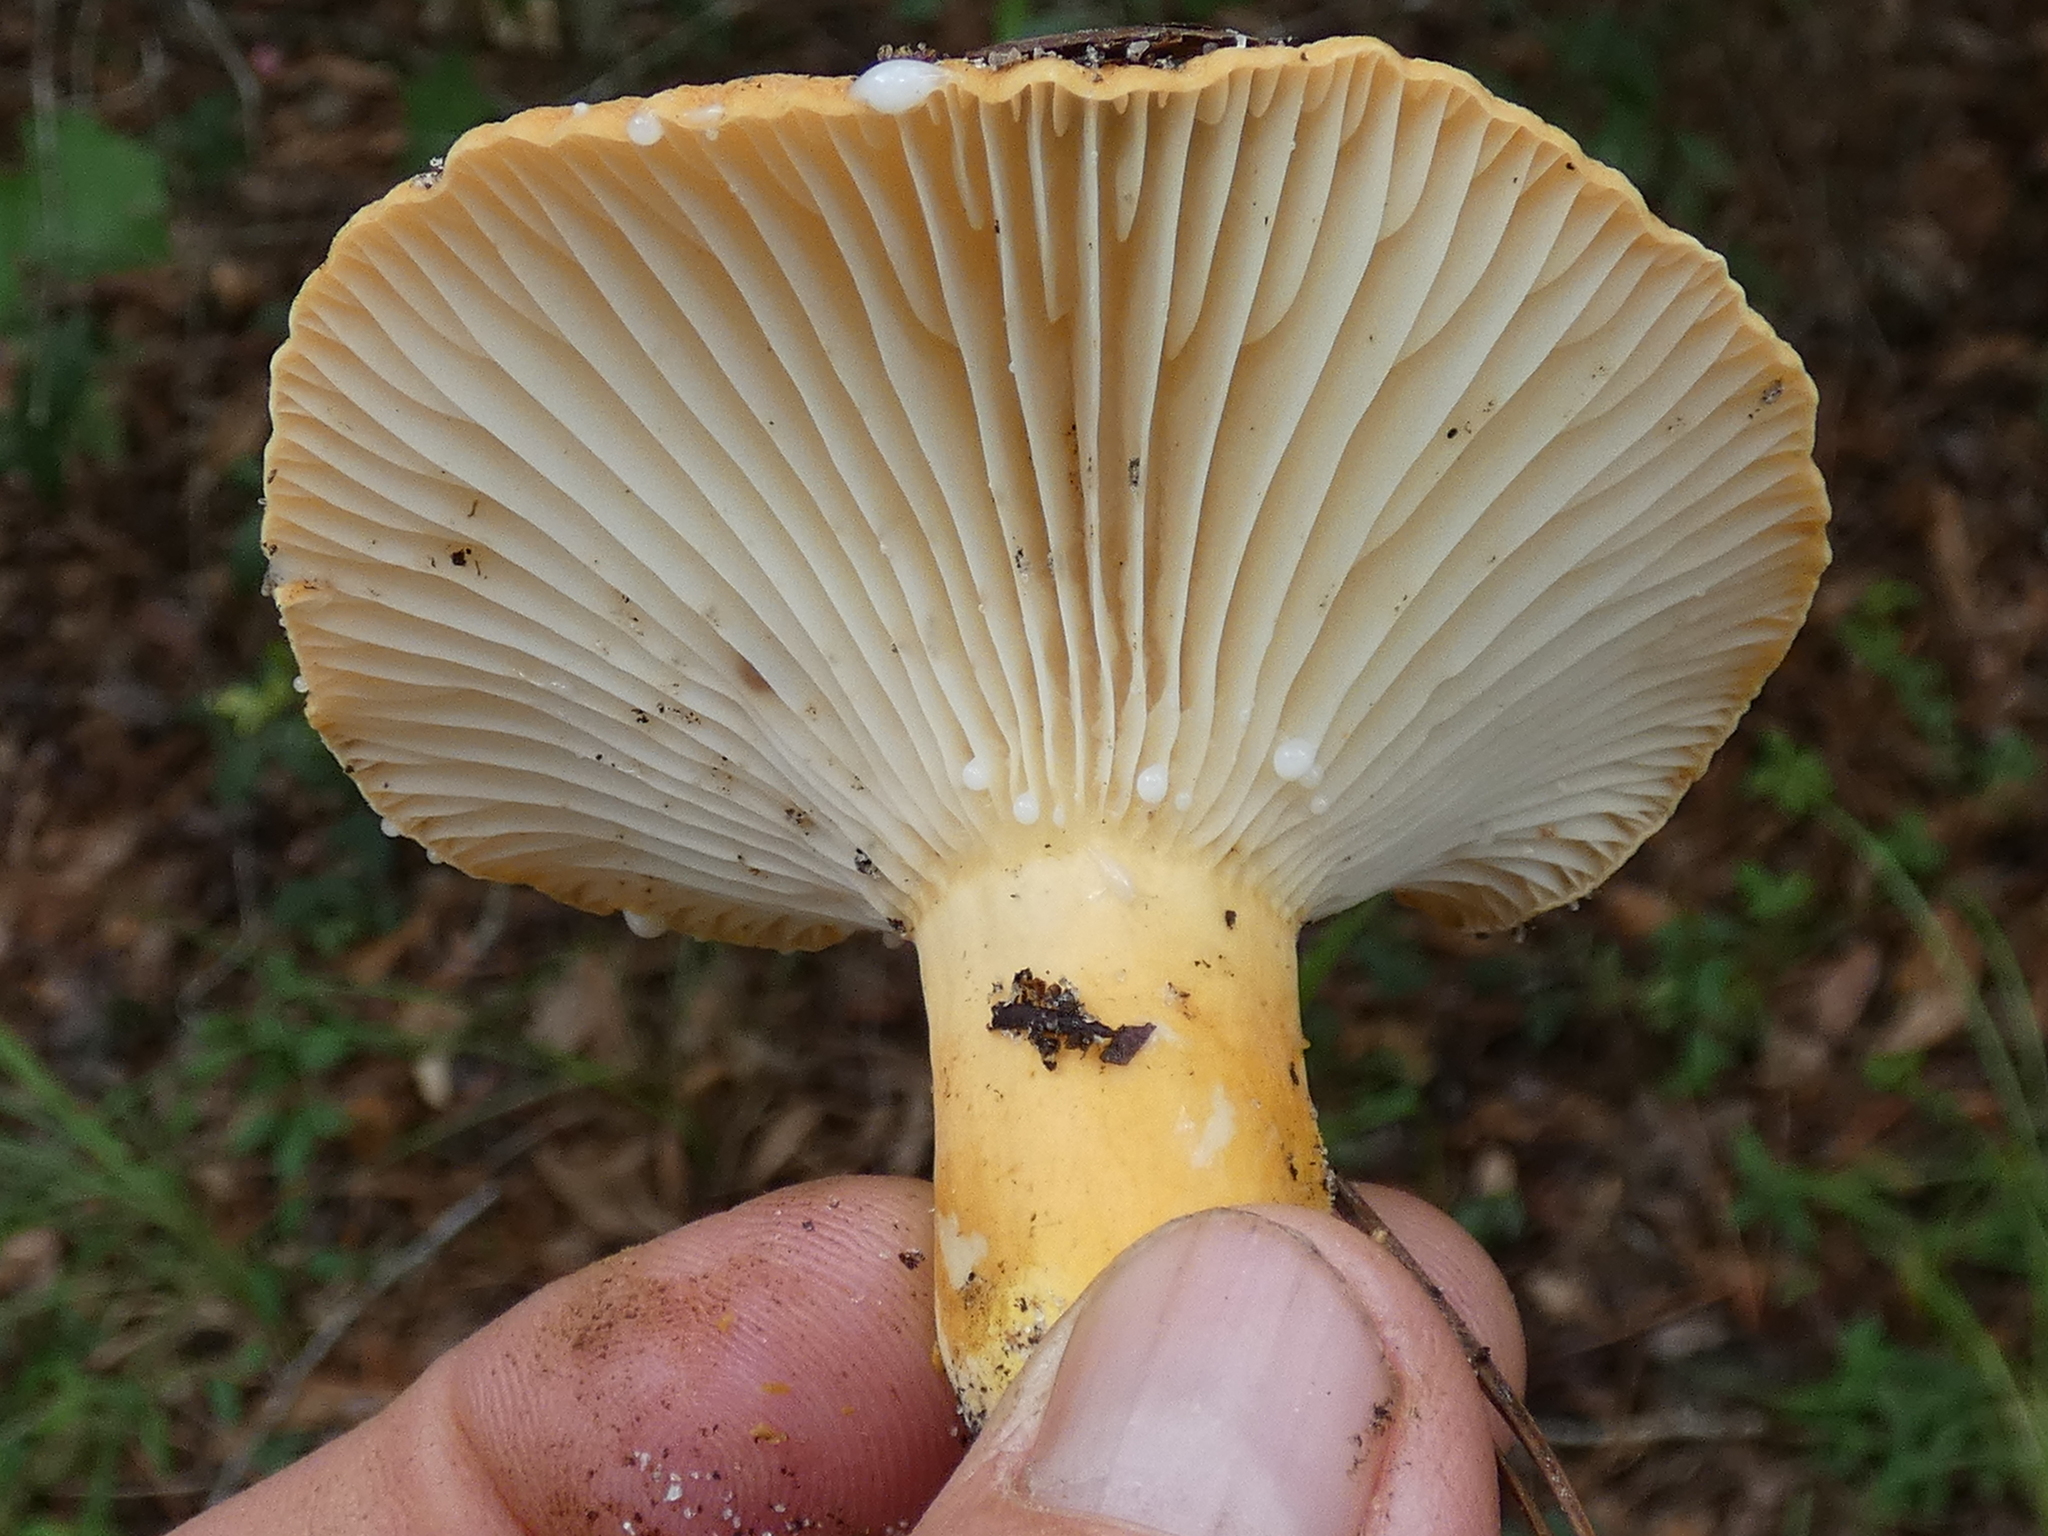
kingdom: Fungi
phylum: Basidiomycota
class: Agaricomycetes
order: Russulales
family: Russulaceae
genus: Lactarius
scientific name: Lactarius hygrophoroides
